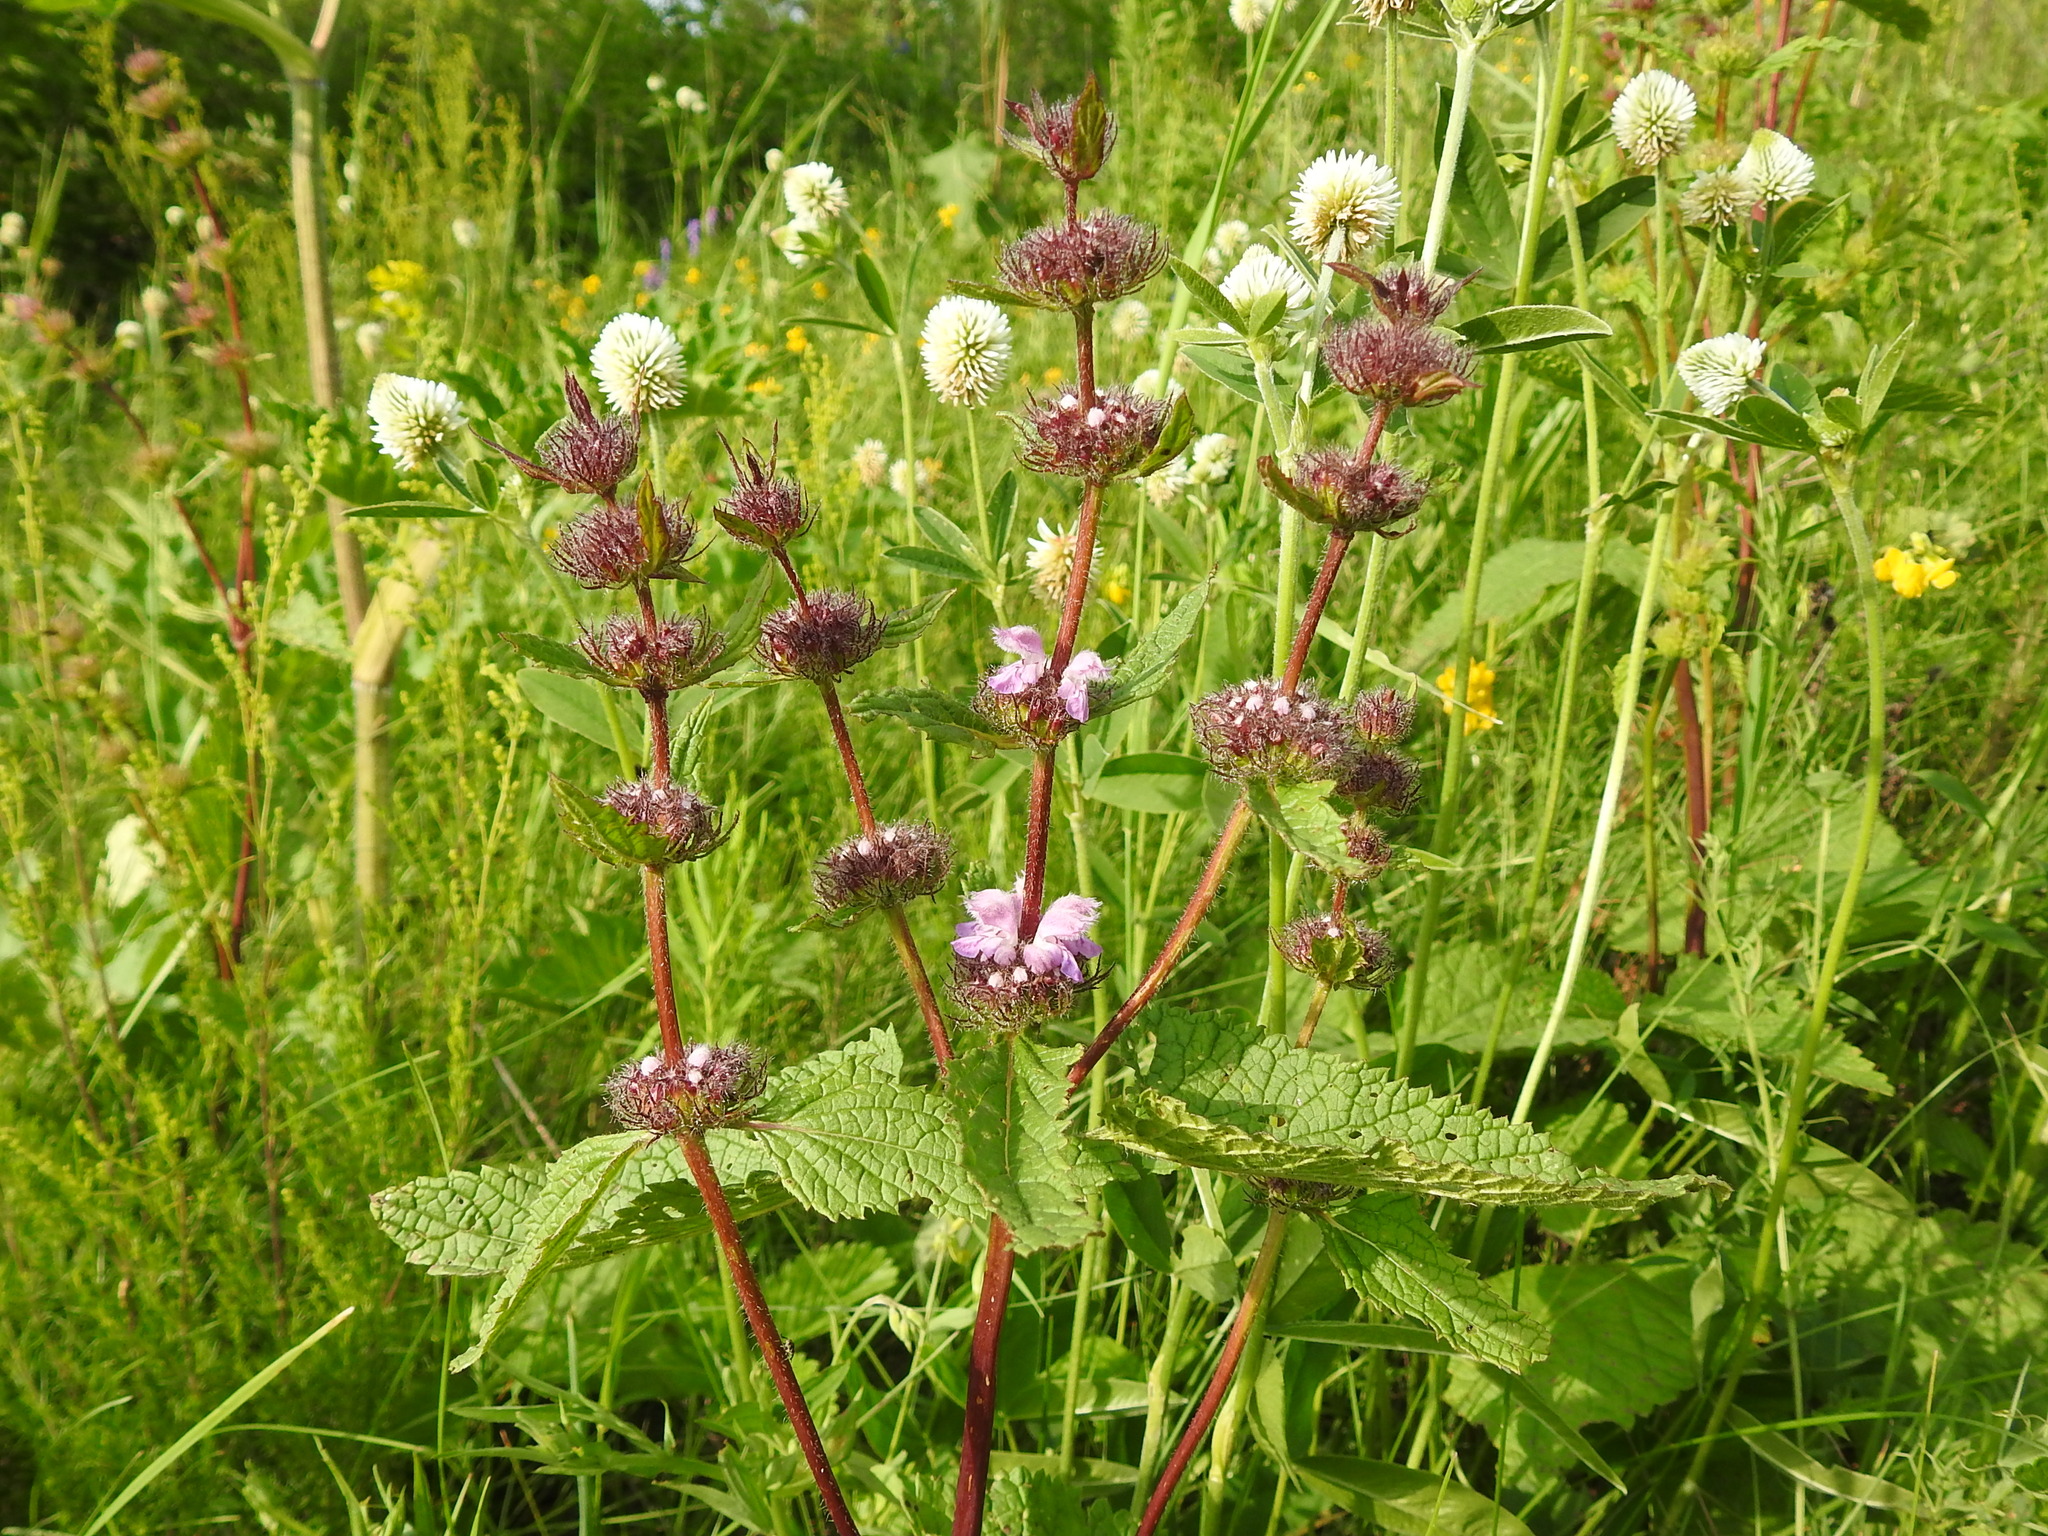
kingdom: Plantae
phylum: Tracheophyta
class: Magnoliopsida
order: Lamiales
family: Lamiaceae
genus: Phlomoides
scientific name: Phlomoides tuberosa
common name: Tuberous jerusalem sage
